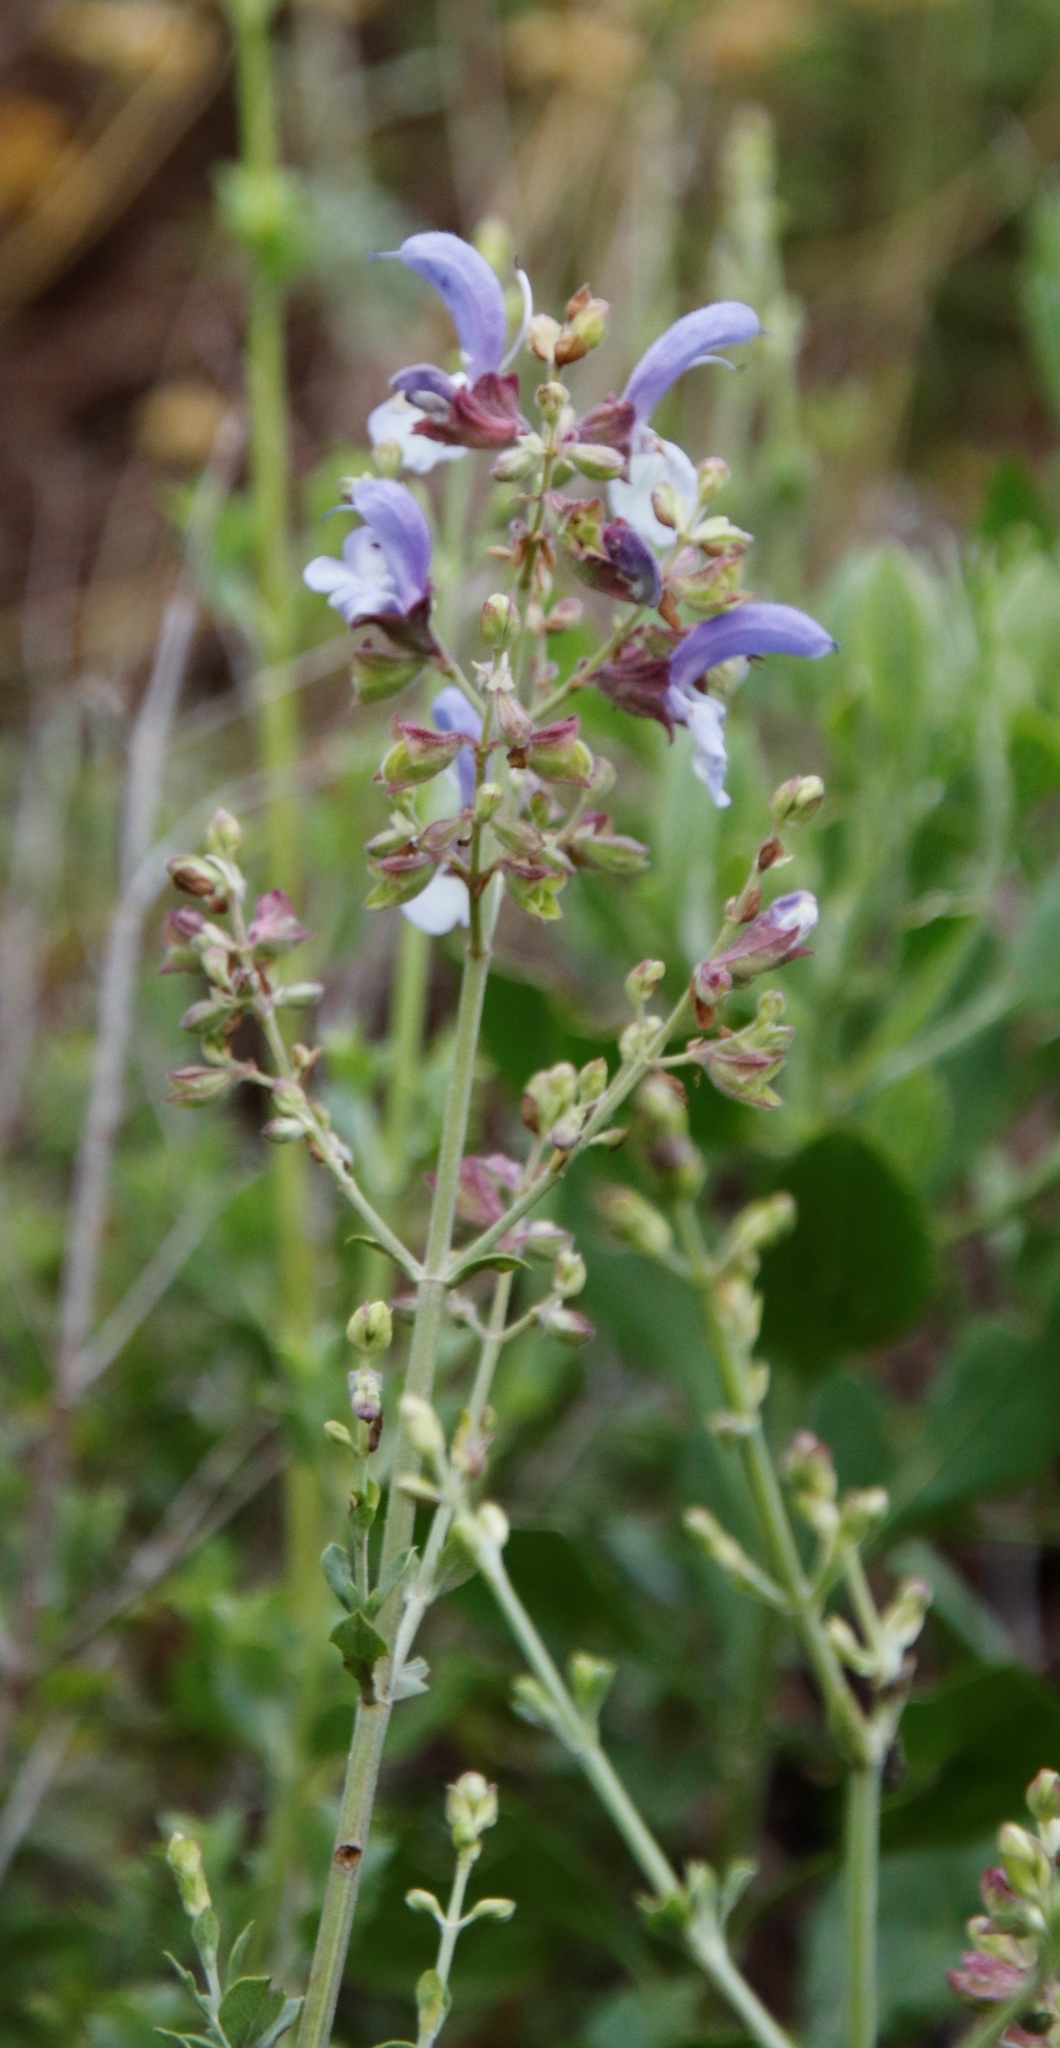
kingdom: Plantae
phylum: Tracheophyta
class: Magnoliopsida
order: Lamiales
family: Lamiaceae
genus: Salvia
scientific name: Salvia chamelaeagnea
